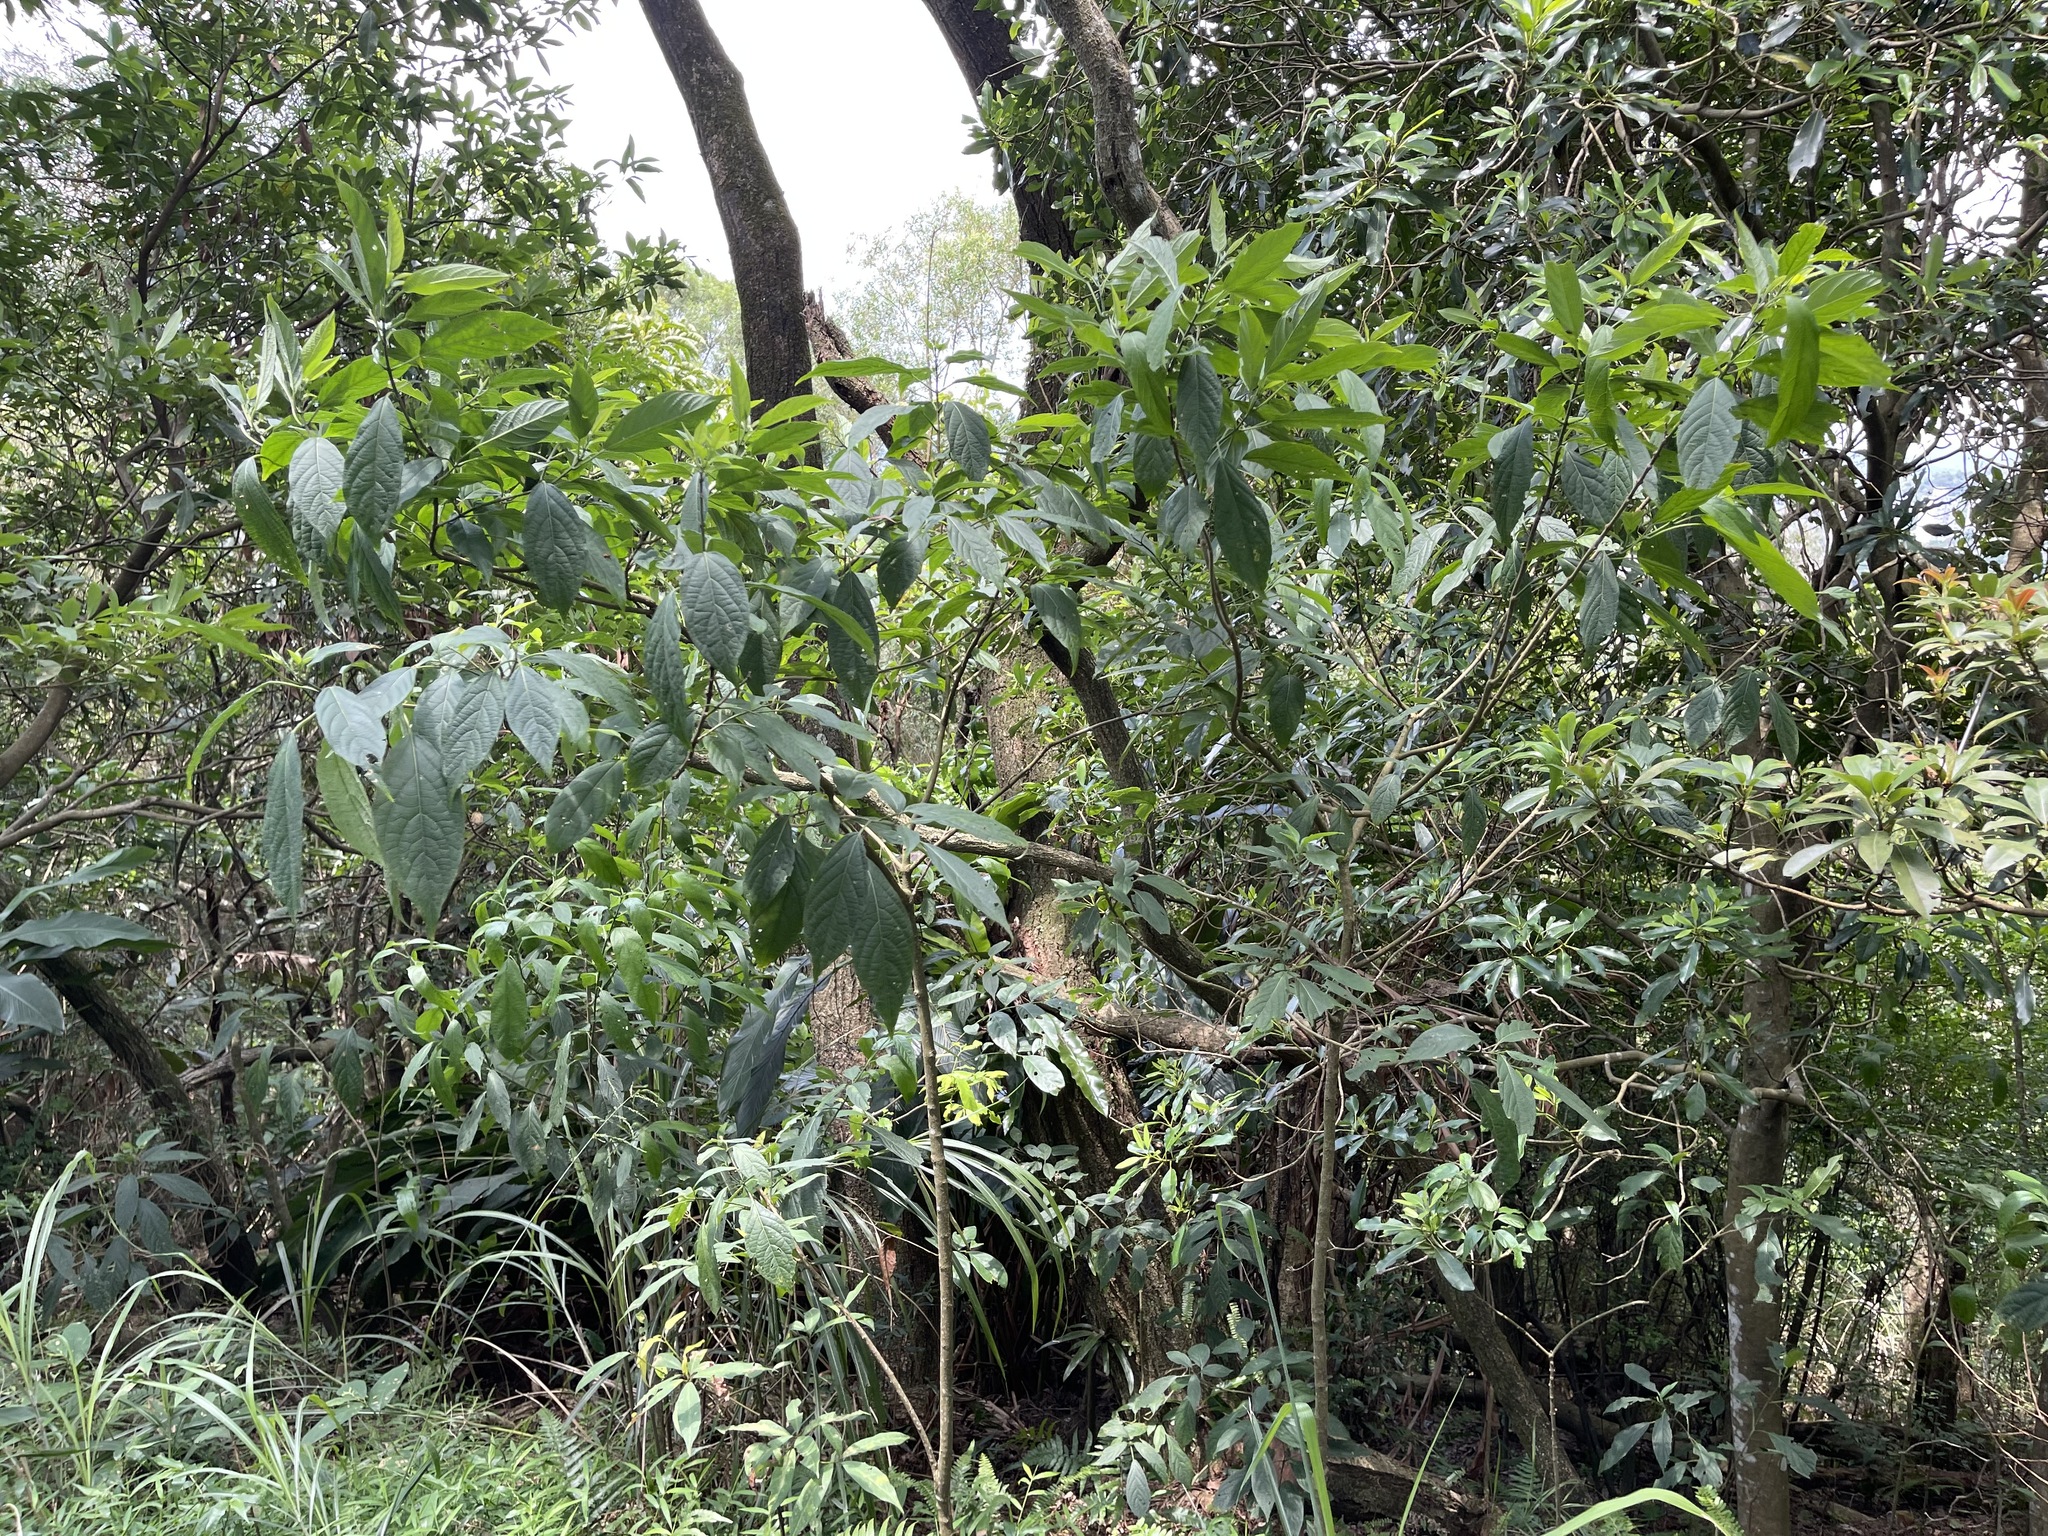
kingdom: Plantae
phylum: Tracheophyta
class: Magnoliopsida
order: Lamiales
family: Lamiaceae
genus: Clerodendrum
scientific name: Clerodendrum cyrtophyllum
